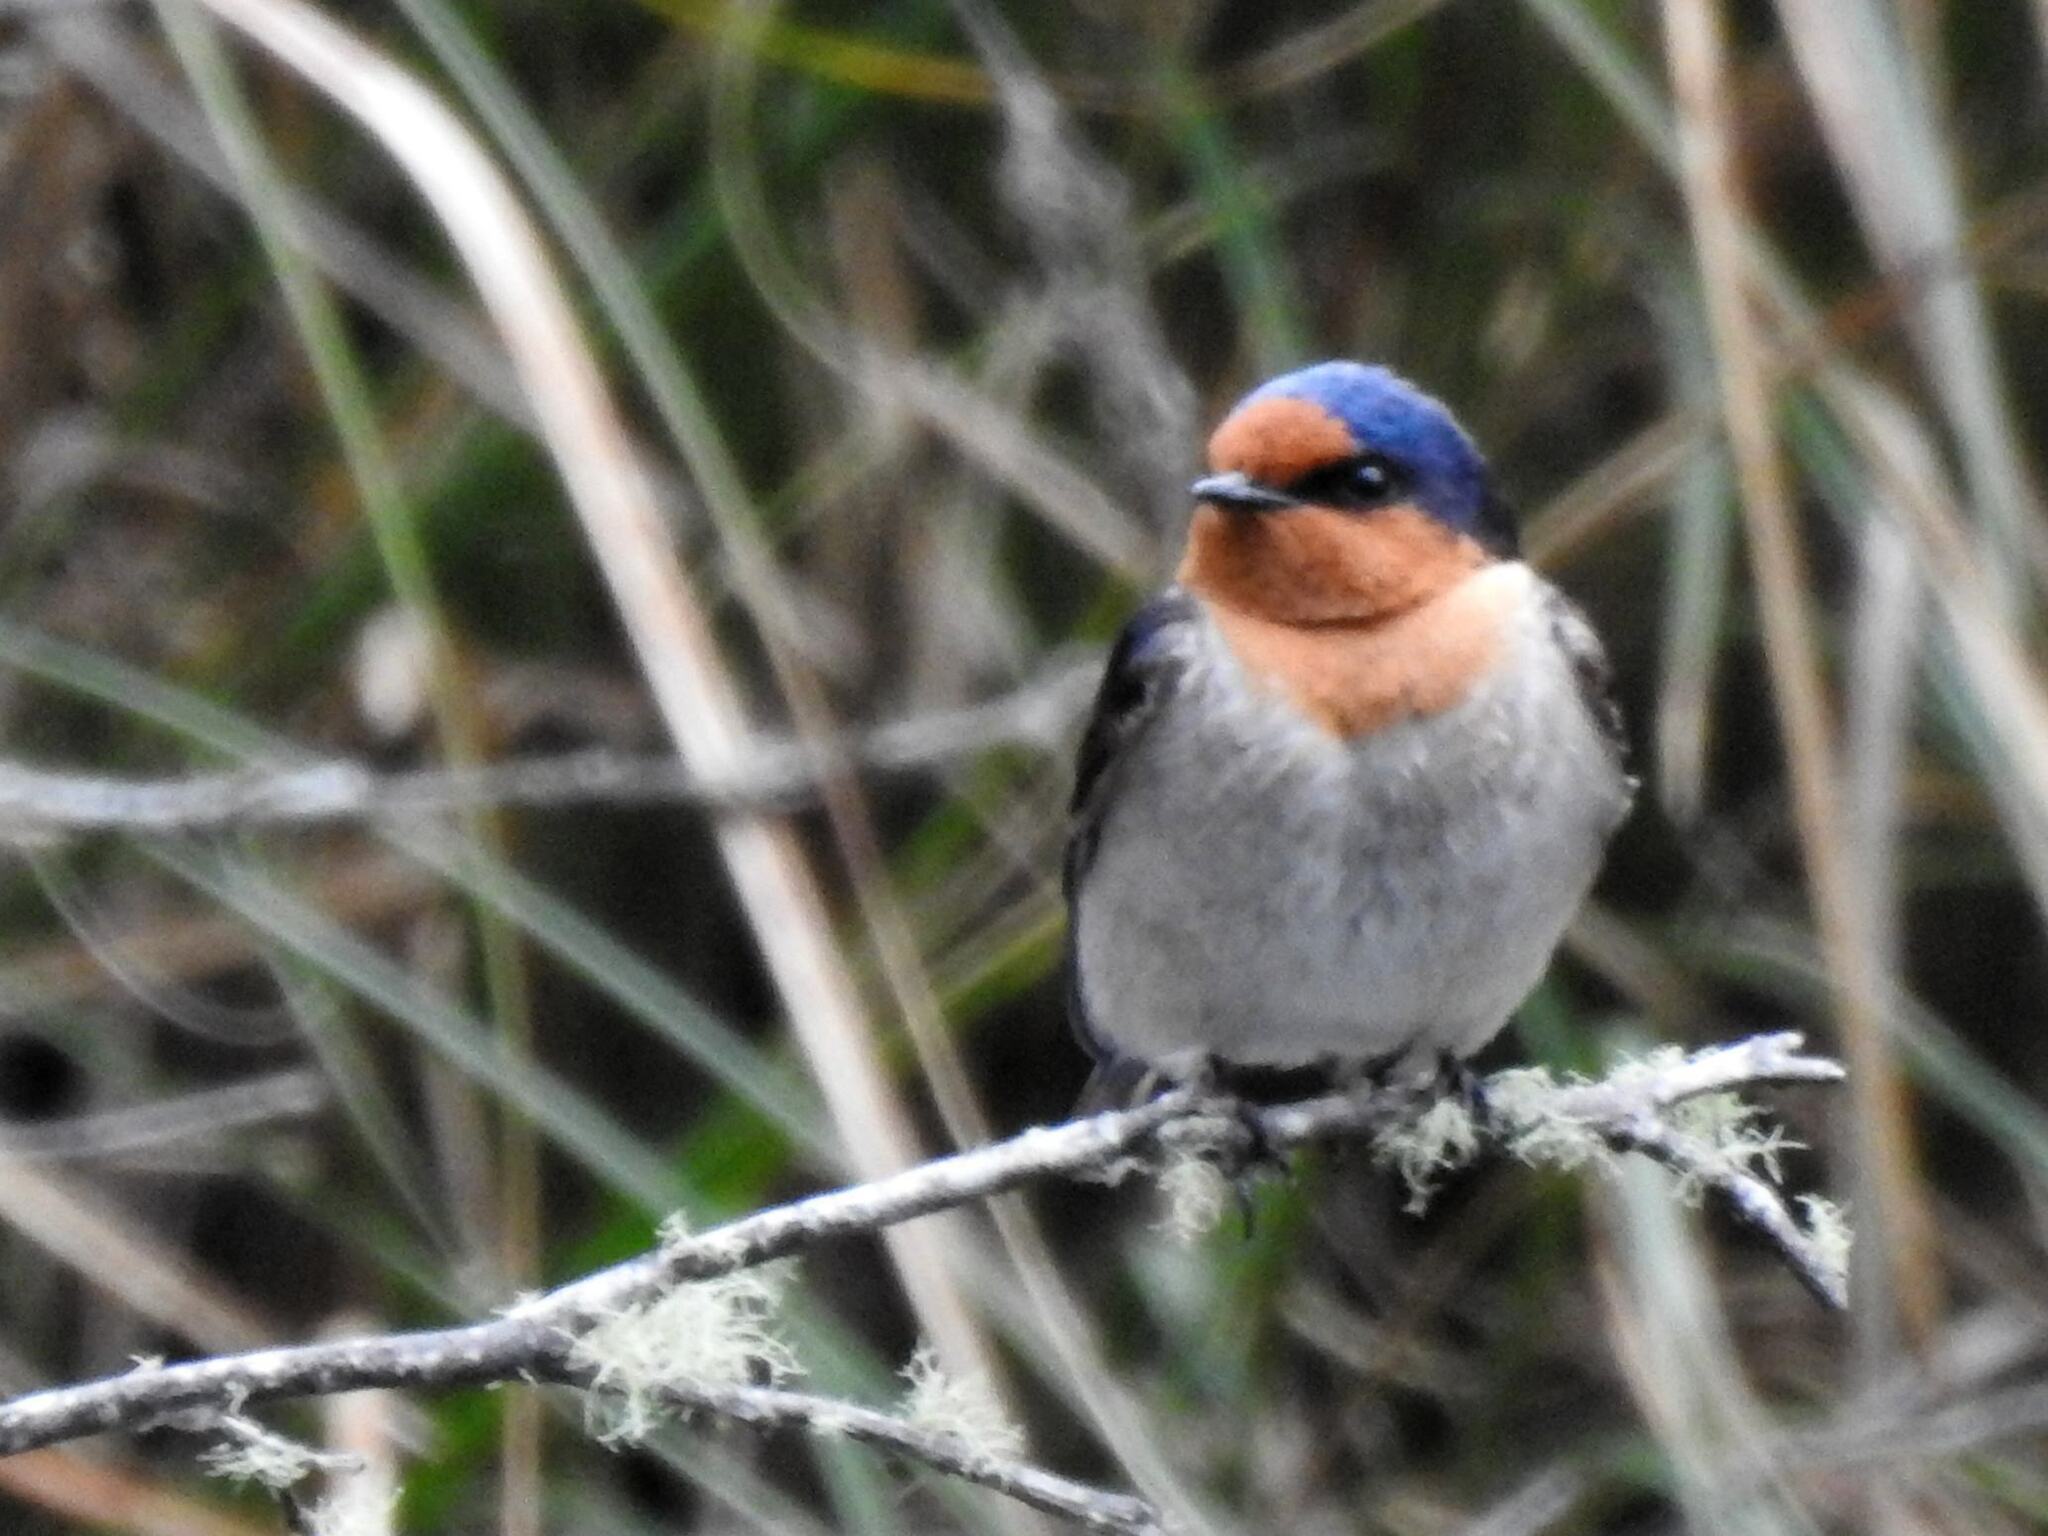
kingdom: Animalia
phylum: Chordata
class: Aves
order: Passeriformes
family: Hirundinidae
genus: Hirundo
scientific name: Hirundo neoxena
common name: Welcome swallow
